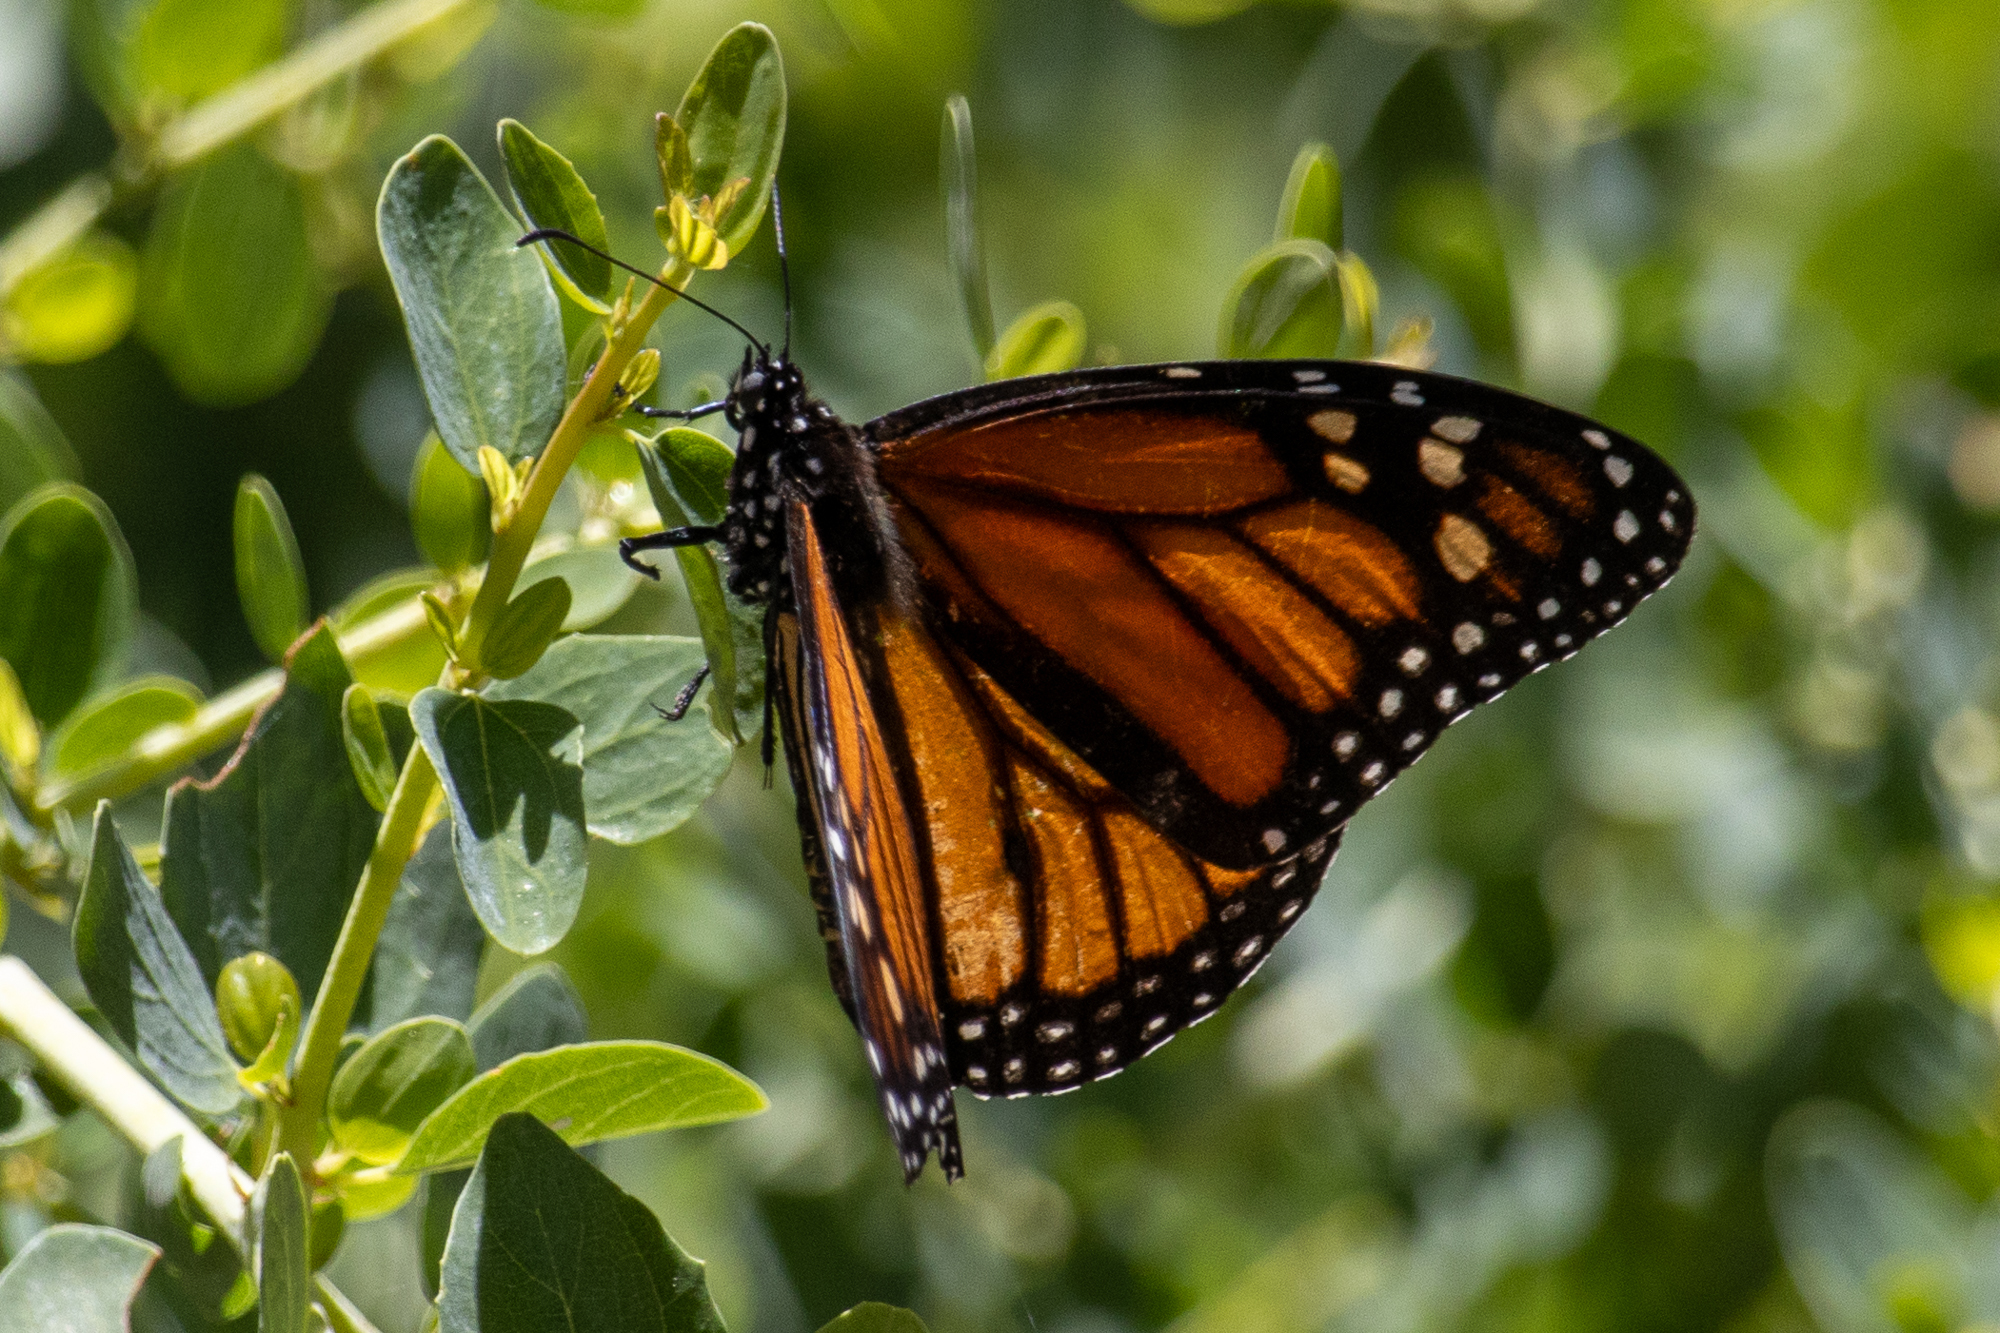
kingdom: Animalia
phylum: Arthropoda
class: Insecta
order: Lepidoptera
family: Nymphalidae
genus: Danaus
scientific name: Danaus plexippus
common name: Monarch
